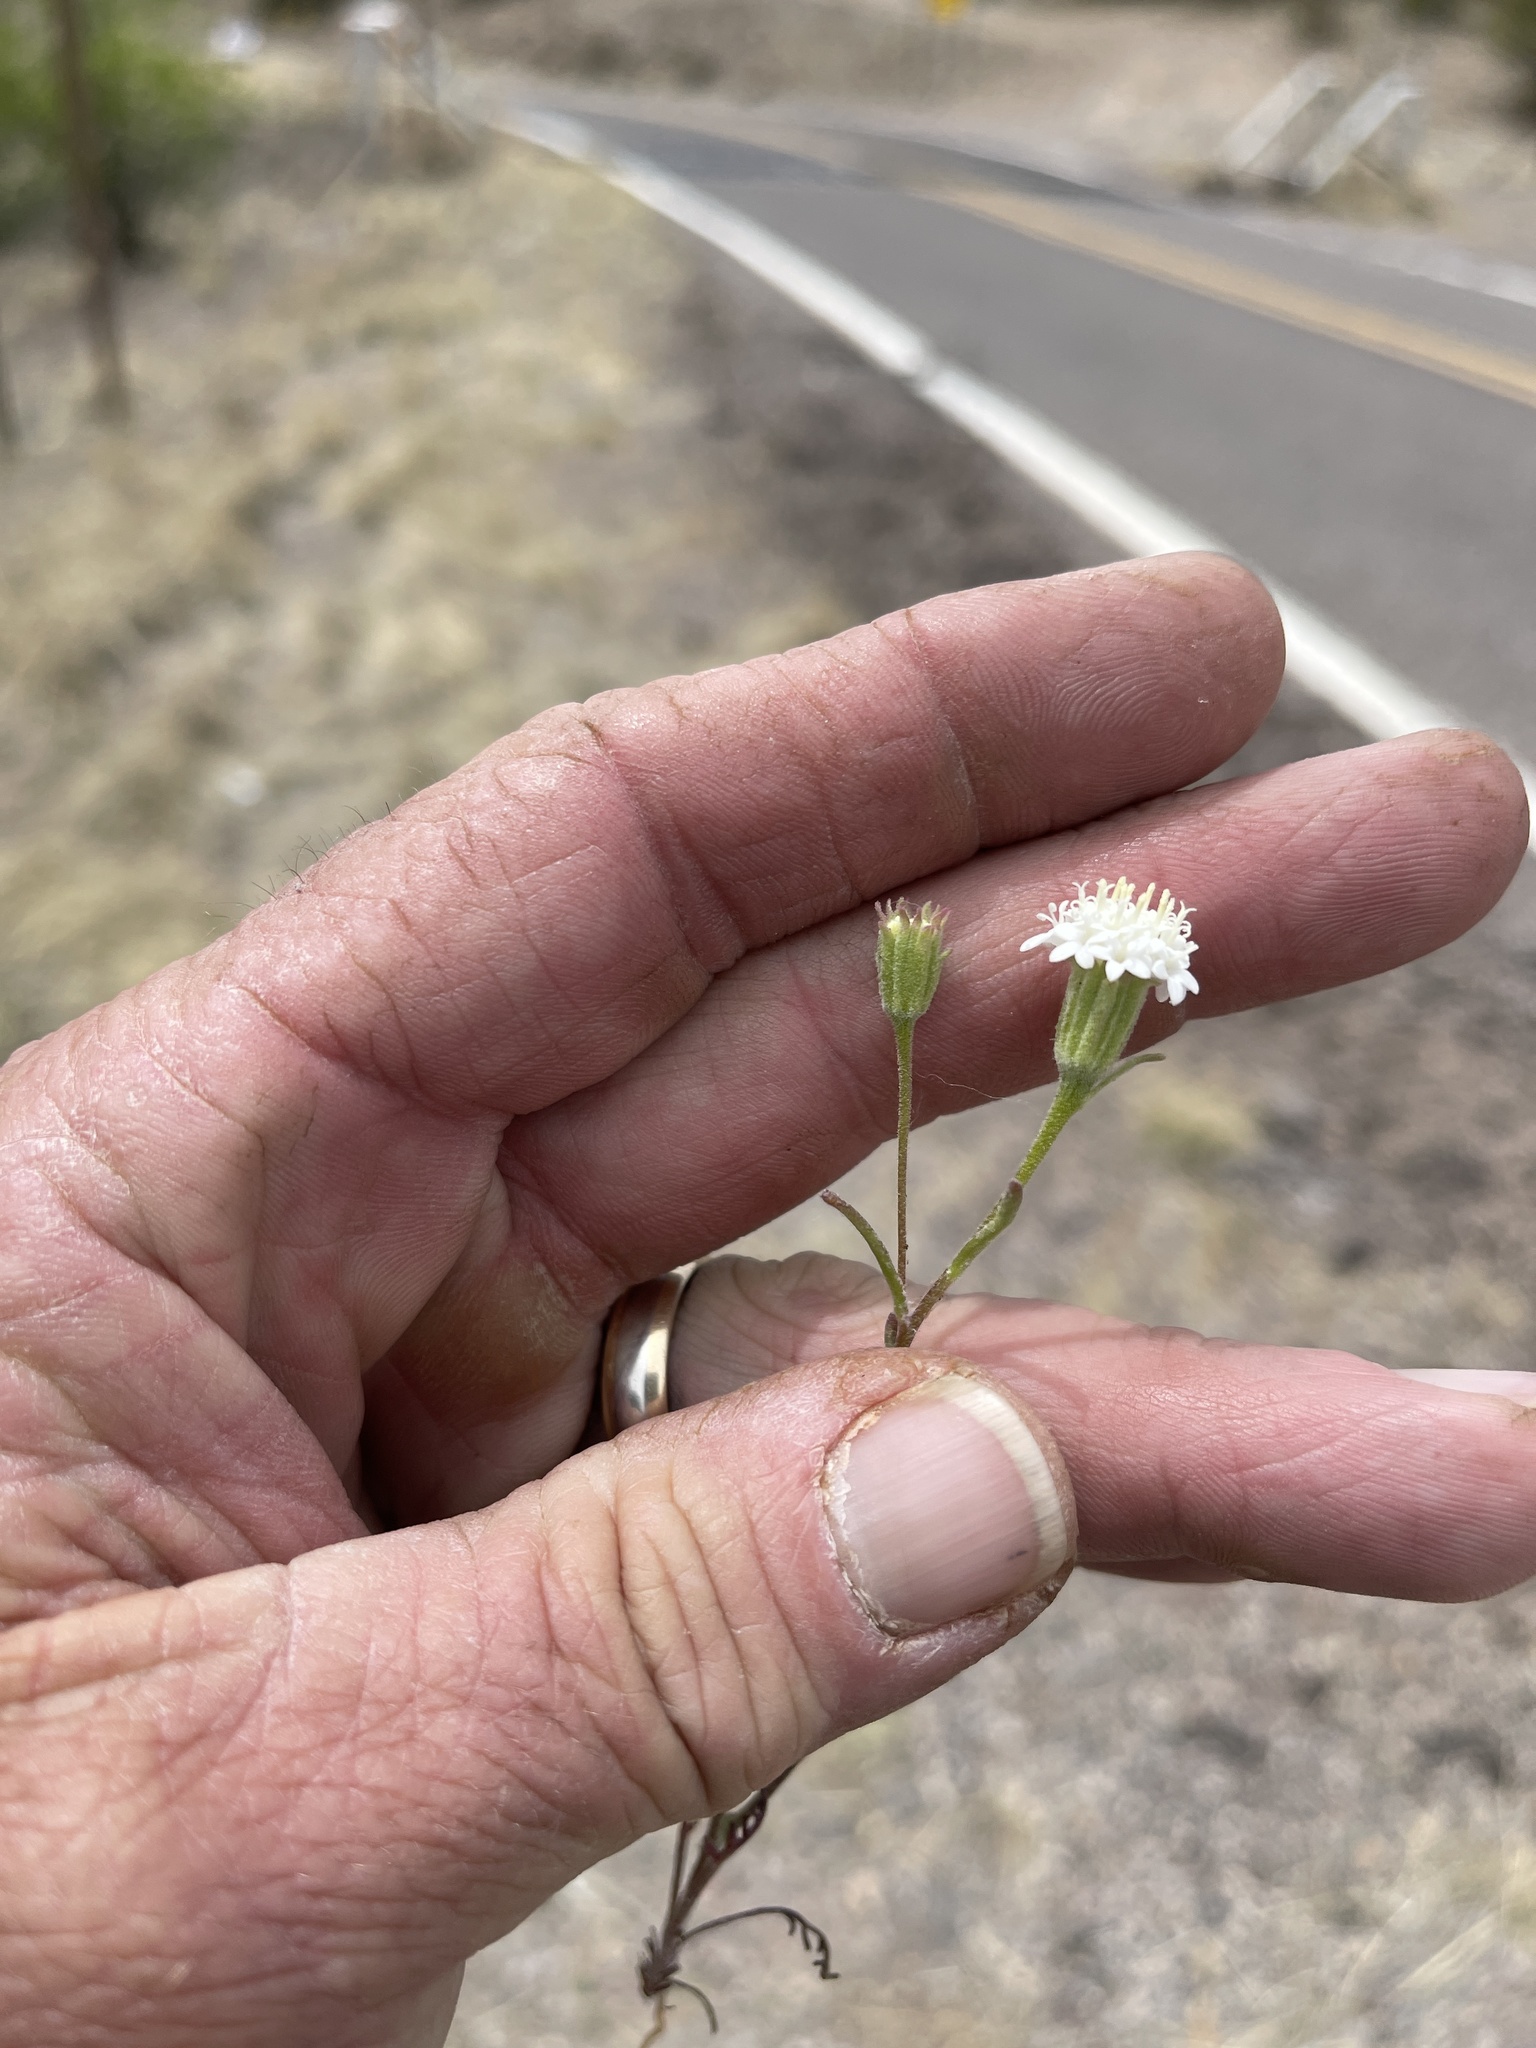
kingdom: Plantae
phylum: Tracheophyta
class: Magnoliopsida
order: Asterales
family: Asteraceae
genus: Chaenactis
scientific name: Chaenactis stevioides
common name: Desert pincushion
